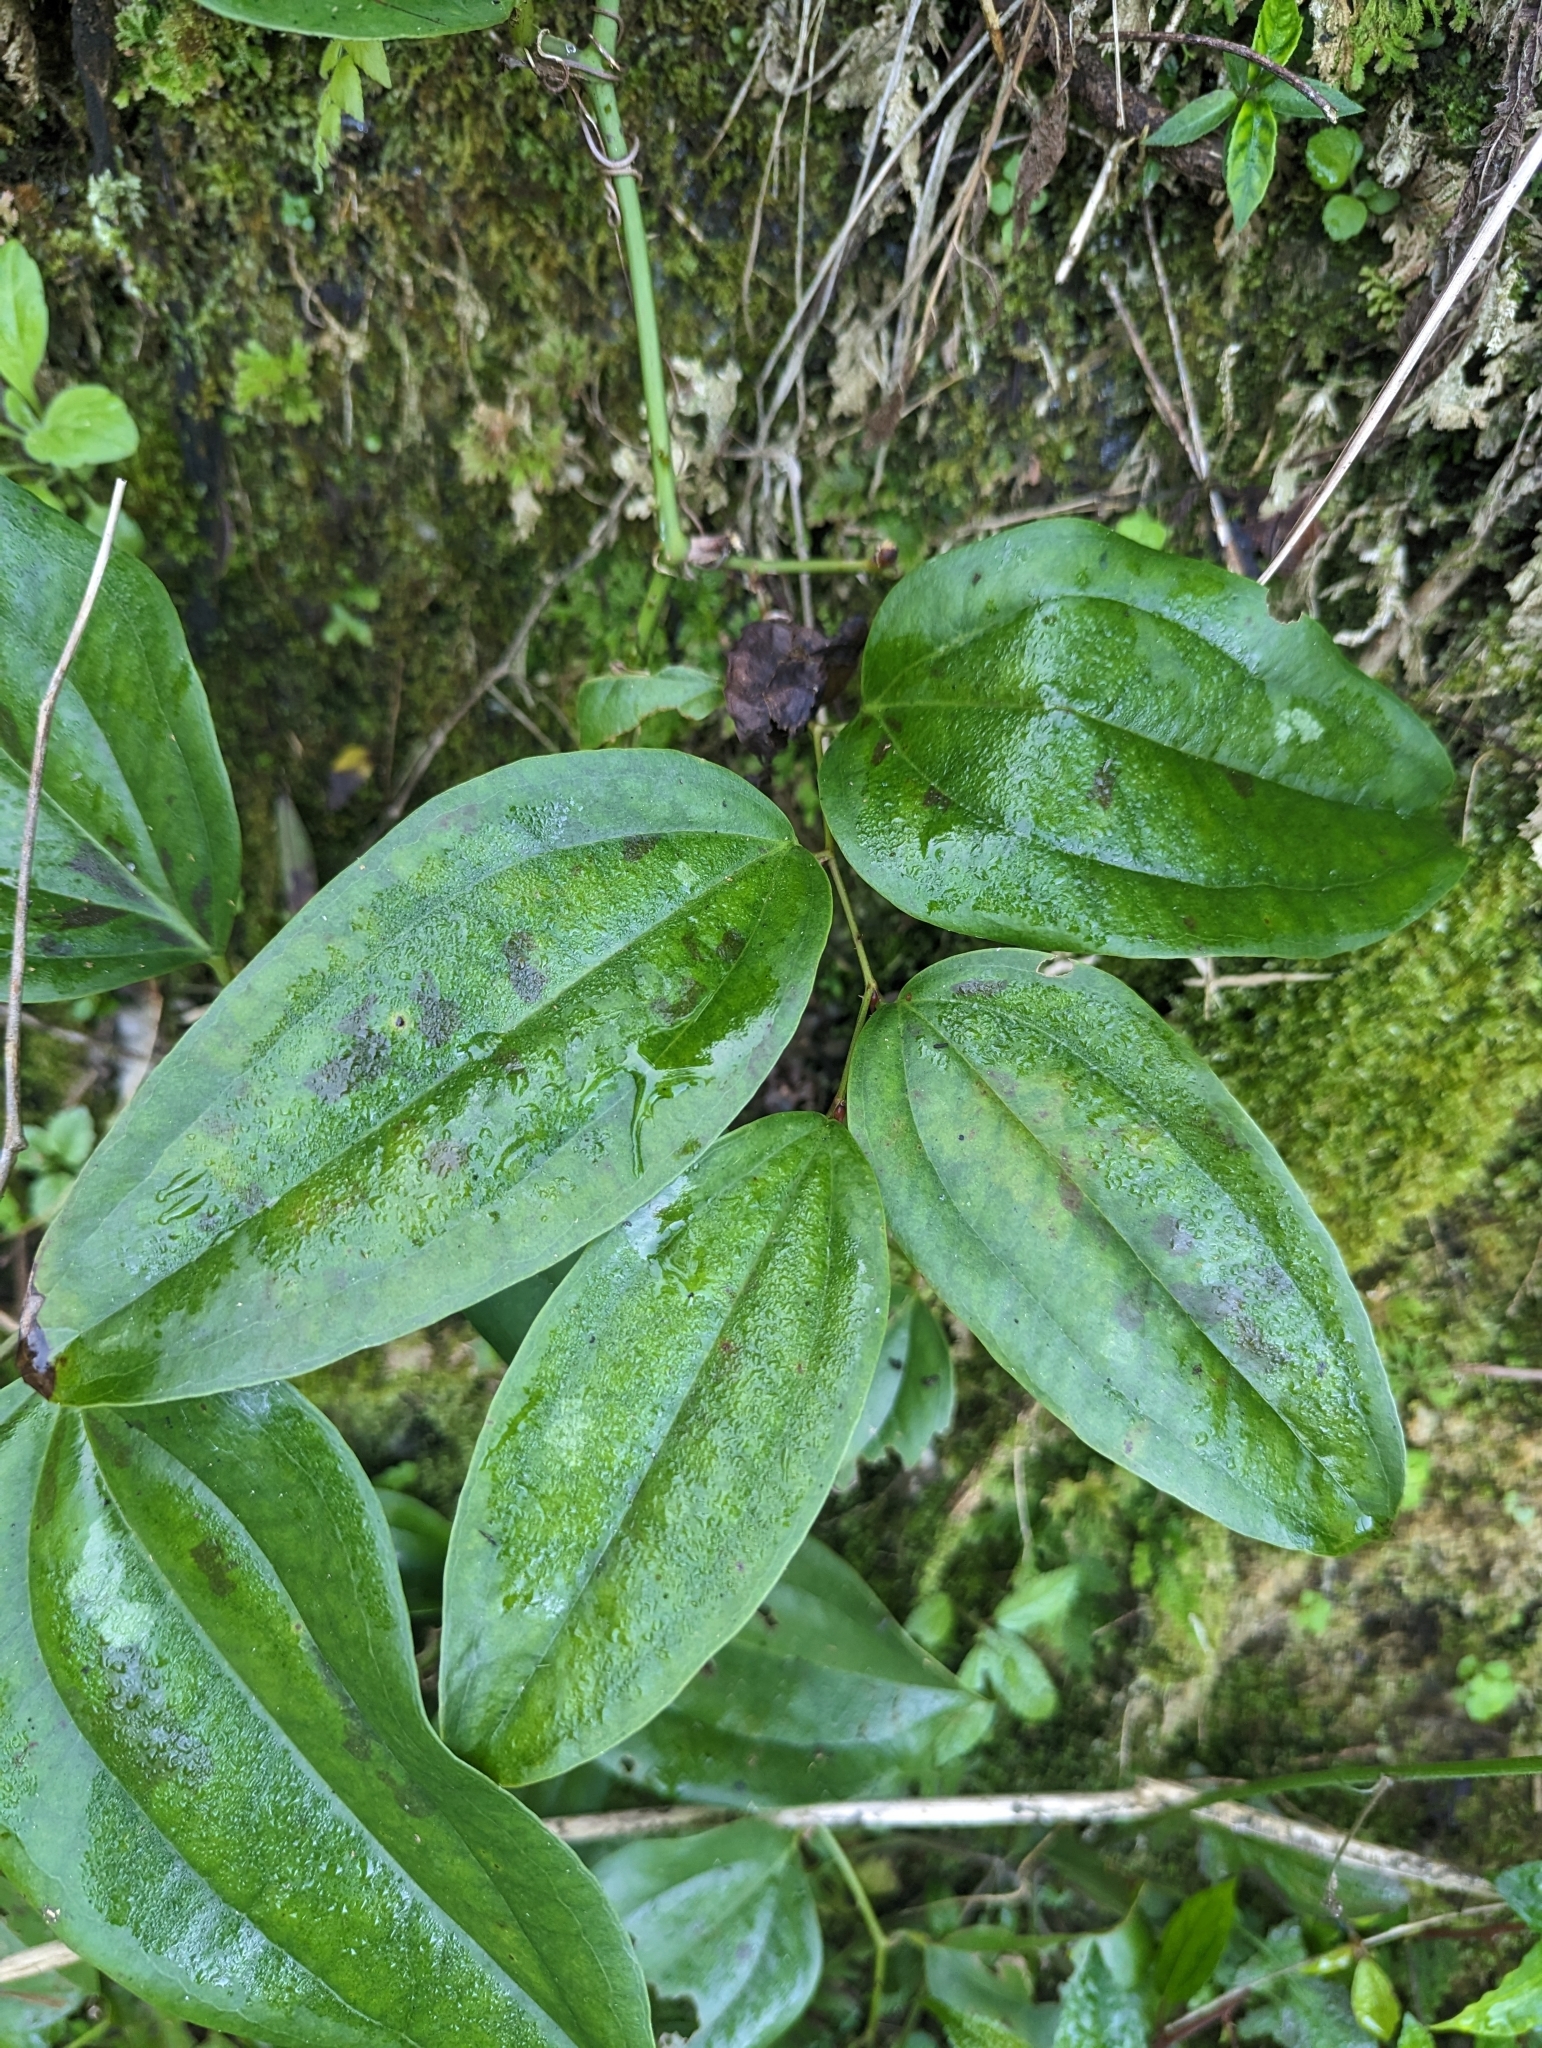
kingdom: Plantae
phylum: Tracheophyta
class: Liliopsida
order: Liliales
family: Smilacaceae
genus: Smilax
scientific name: Smilax bracteata
